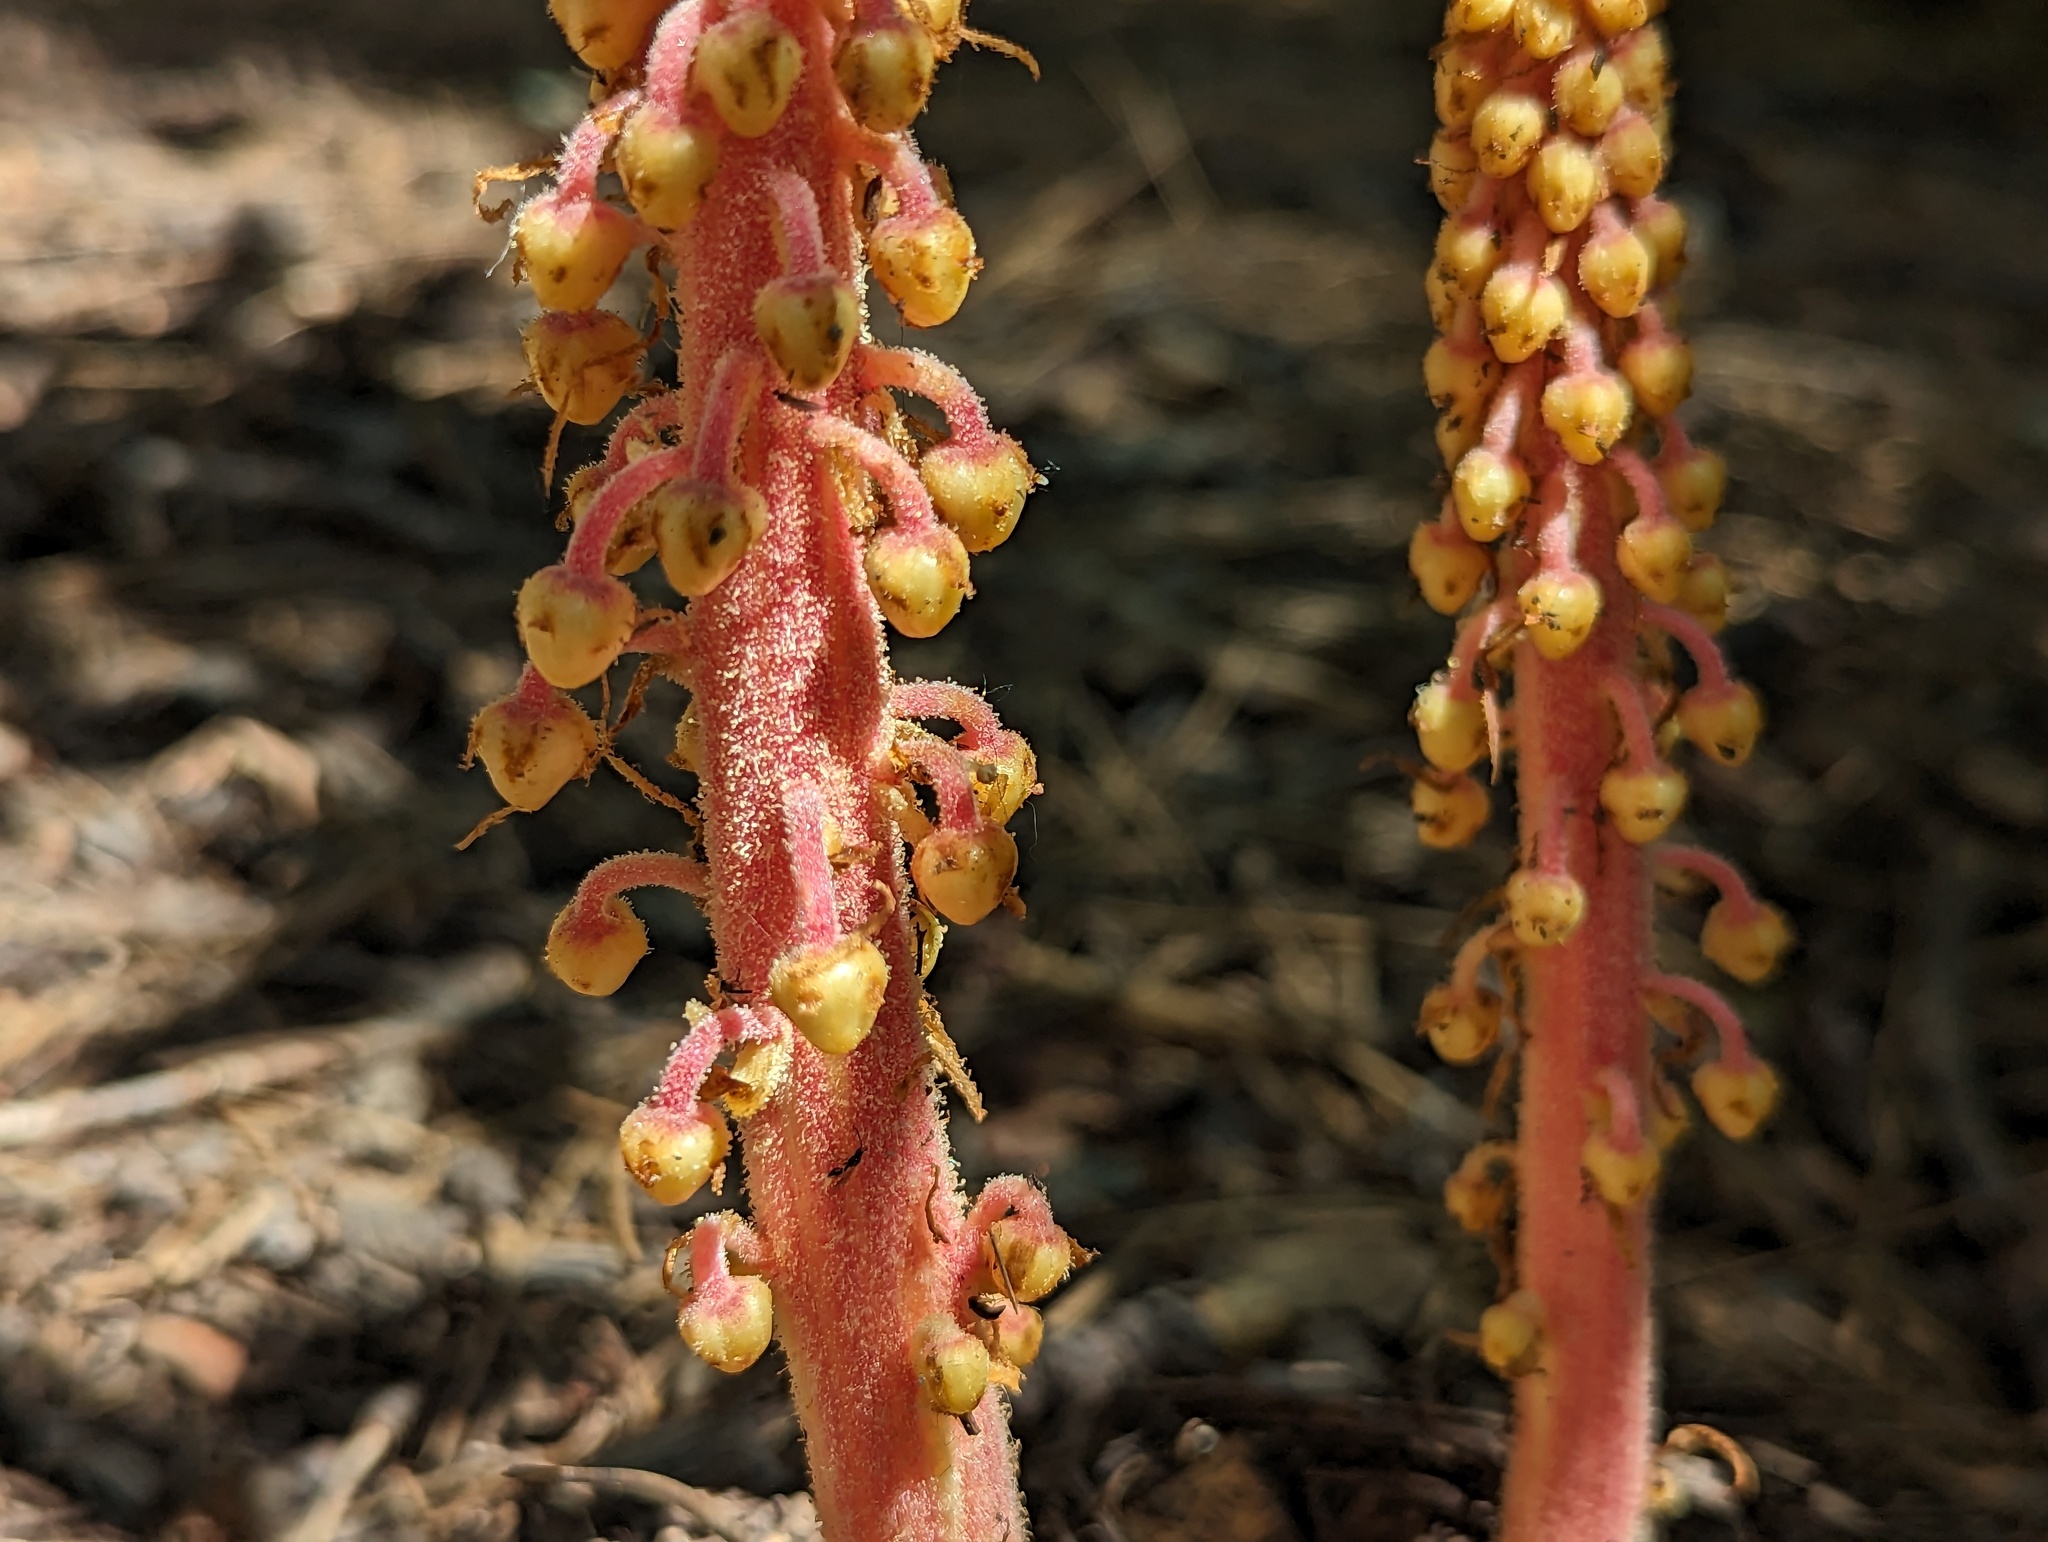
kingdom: Plantae
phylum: Tracheophyta
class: Magnoliopsida
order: Ericales
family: Ericaceae
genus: Pterospora
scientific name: Pterospora andromedea
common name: Giant bird's-nest
